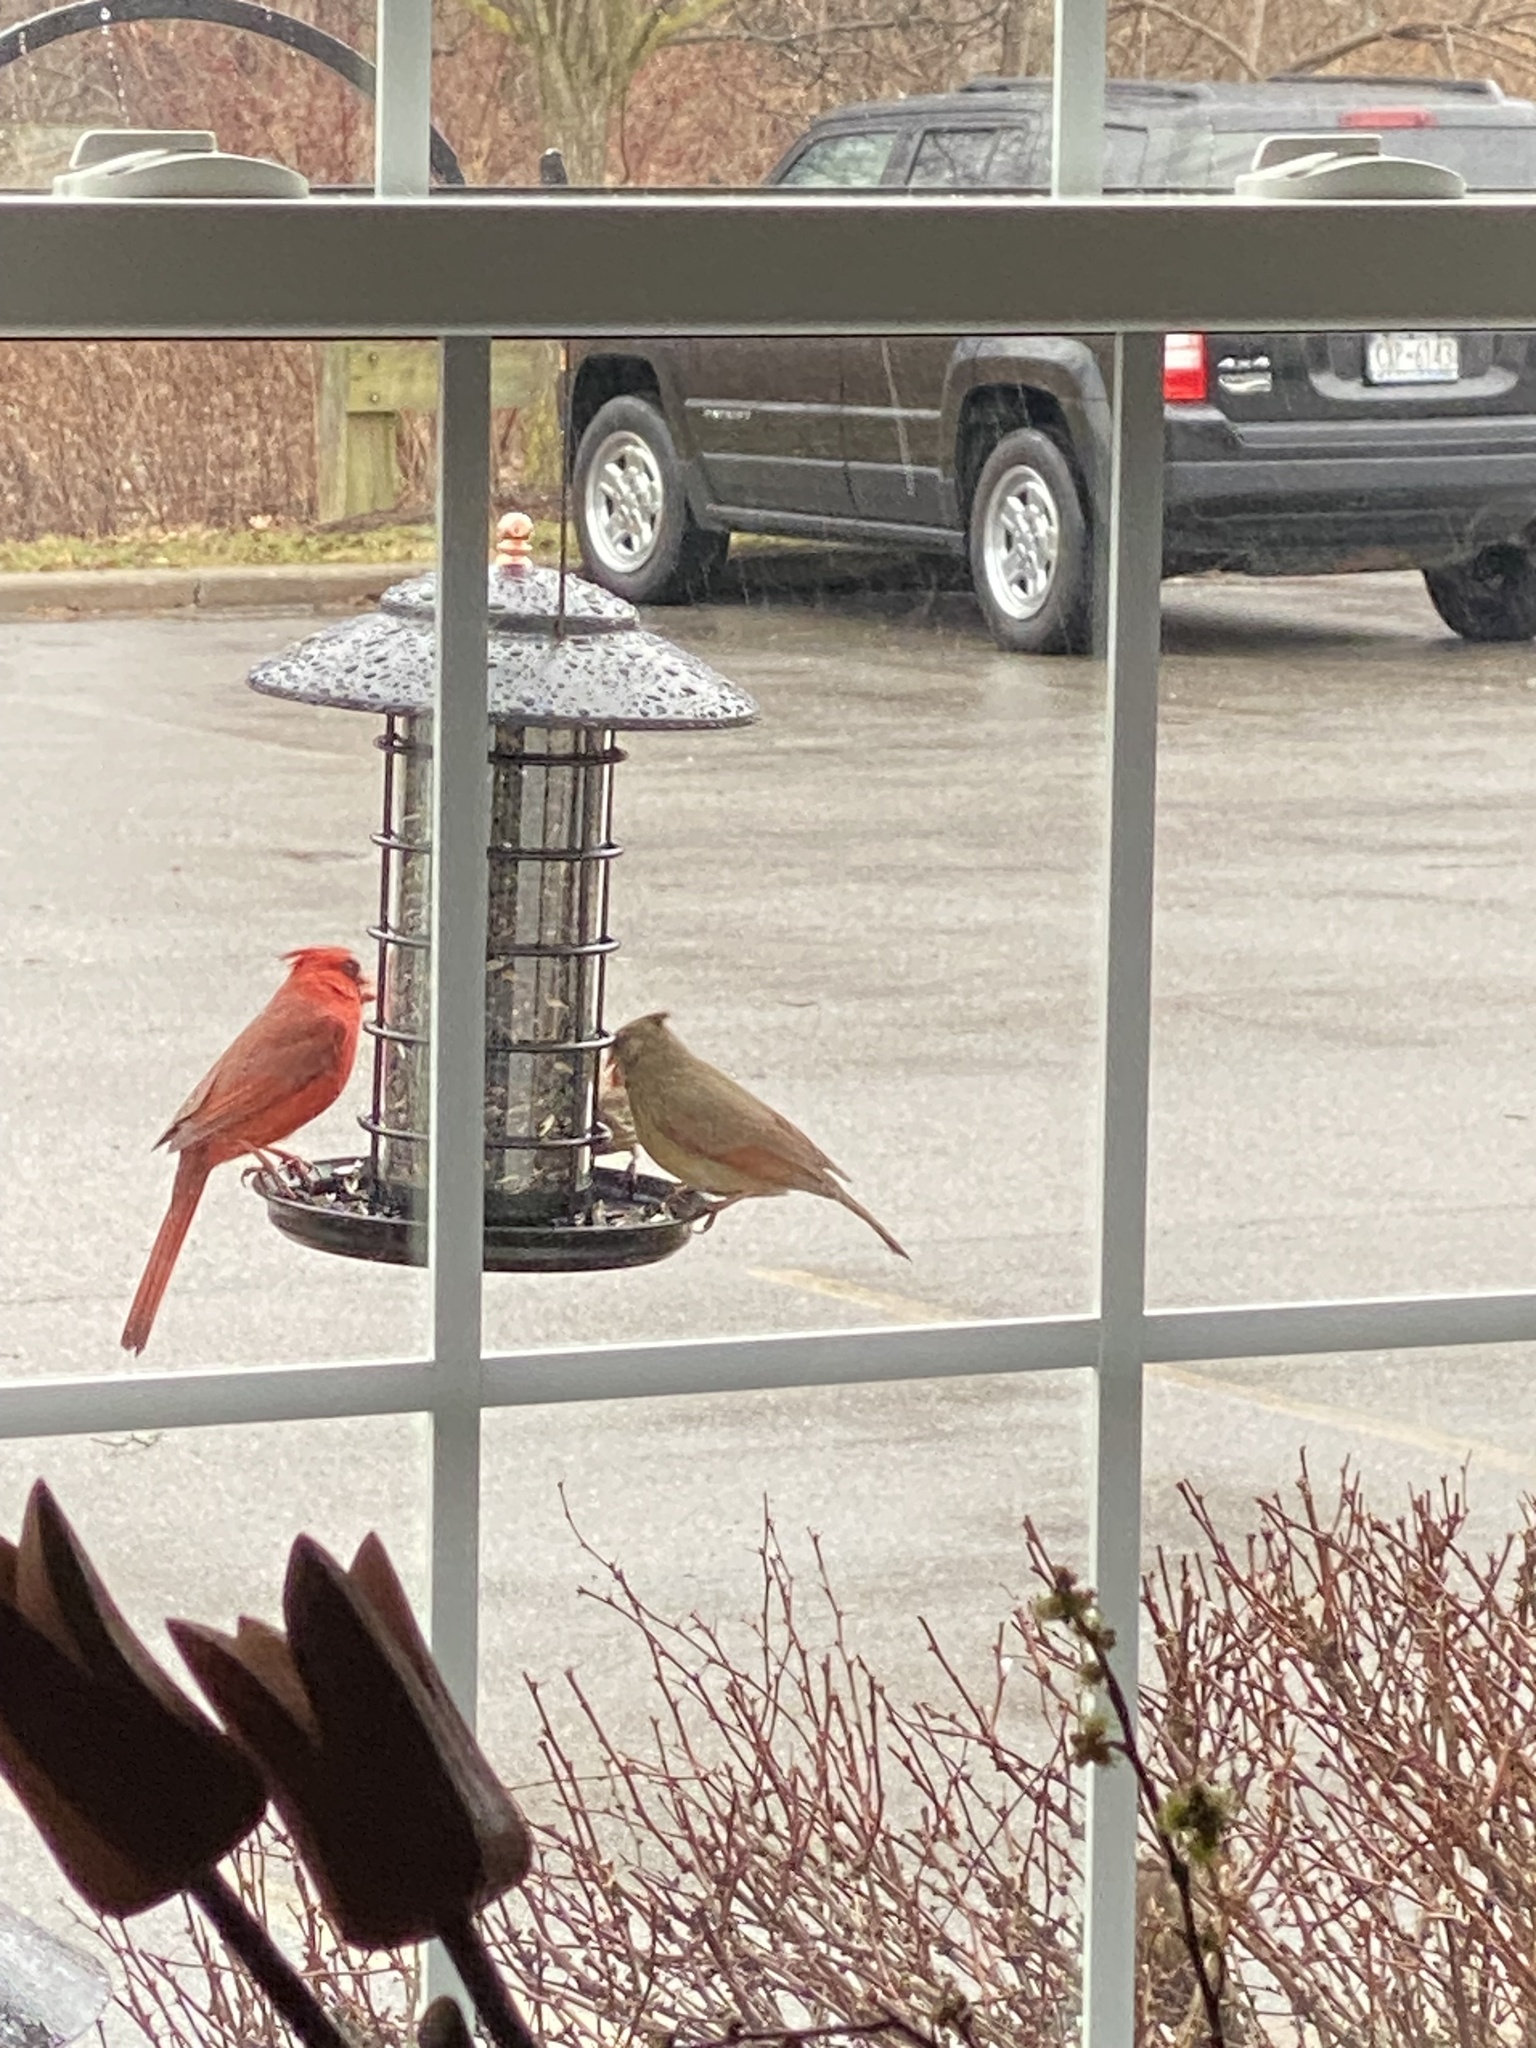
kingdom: Animalia
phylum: Chordata
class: Aves
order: Passeriformes
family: Cardinalidae
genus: Cardinalis
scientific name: Cardinalis cardinalis
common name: Northern cardinal
